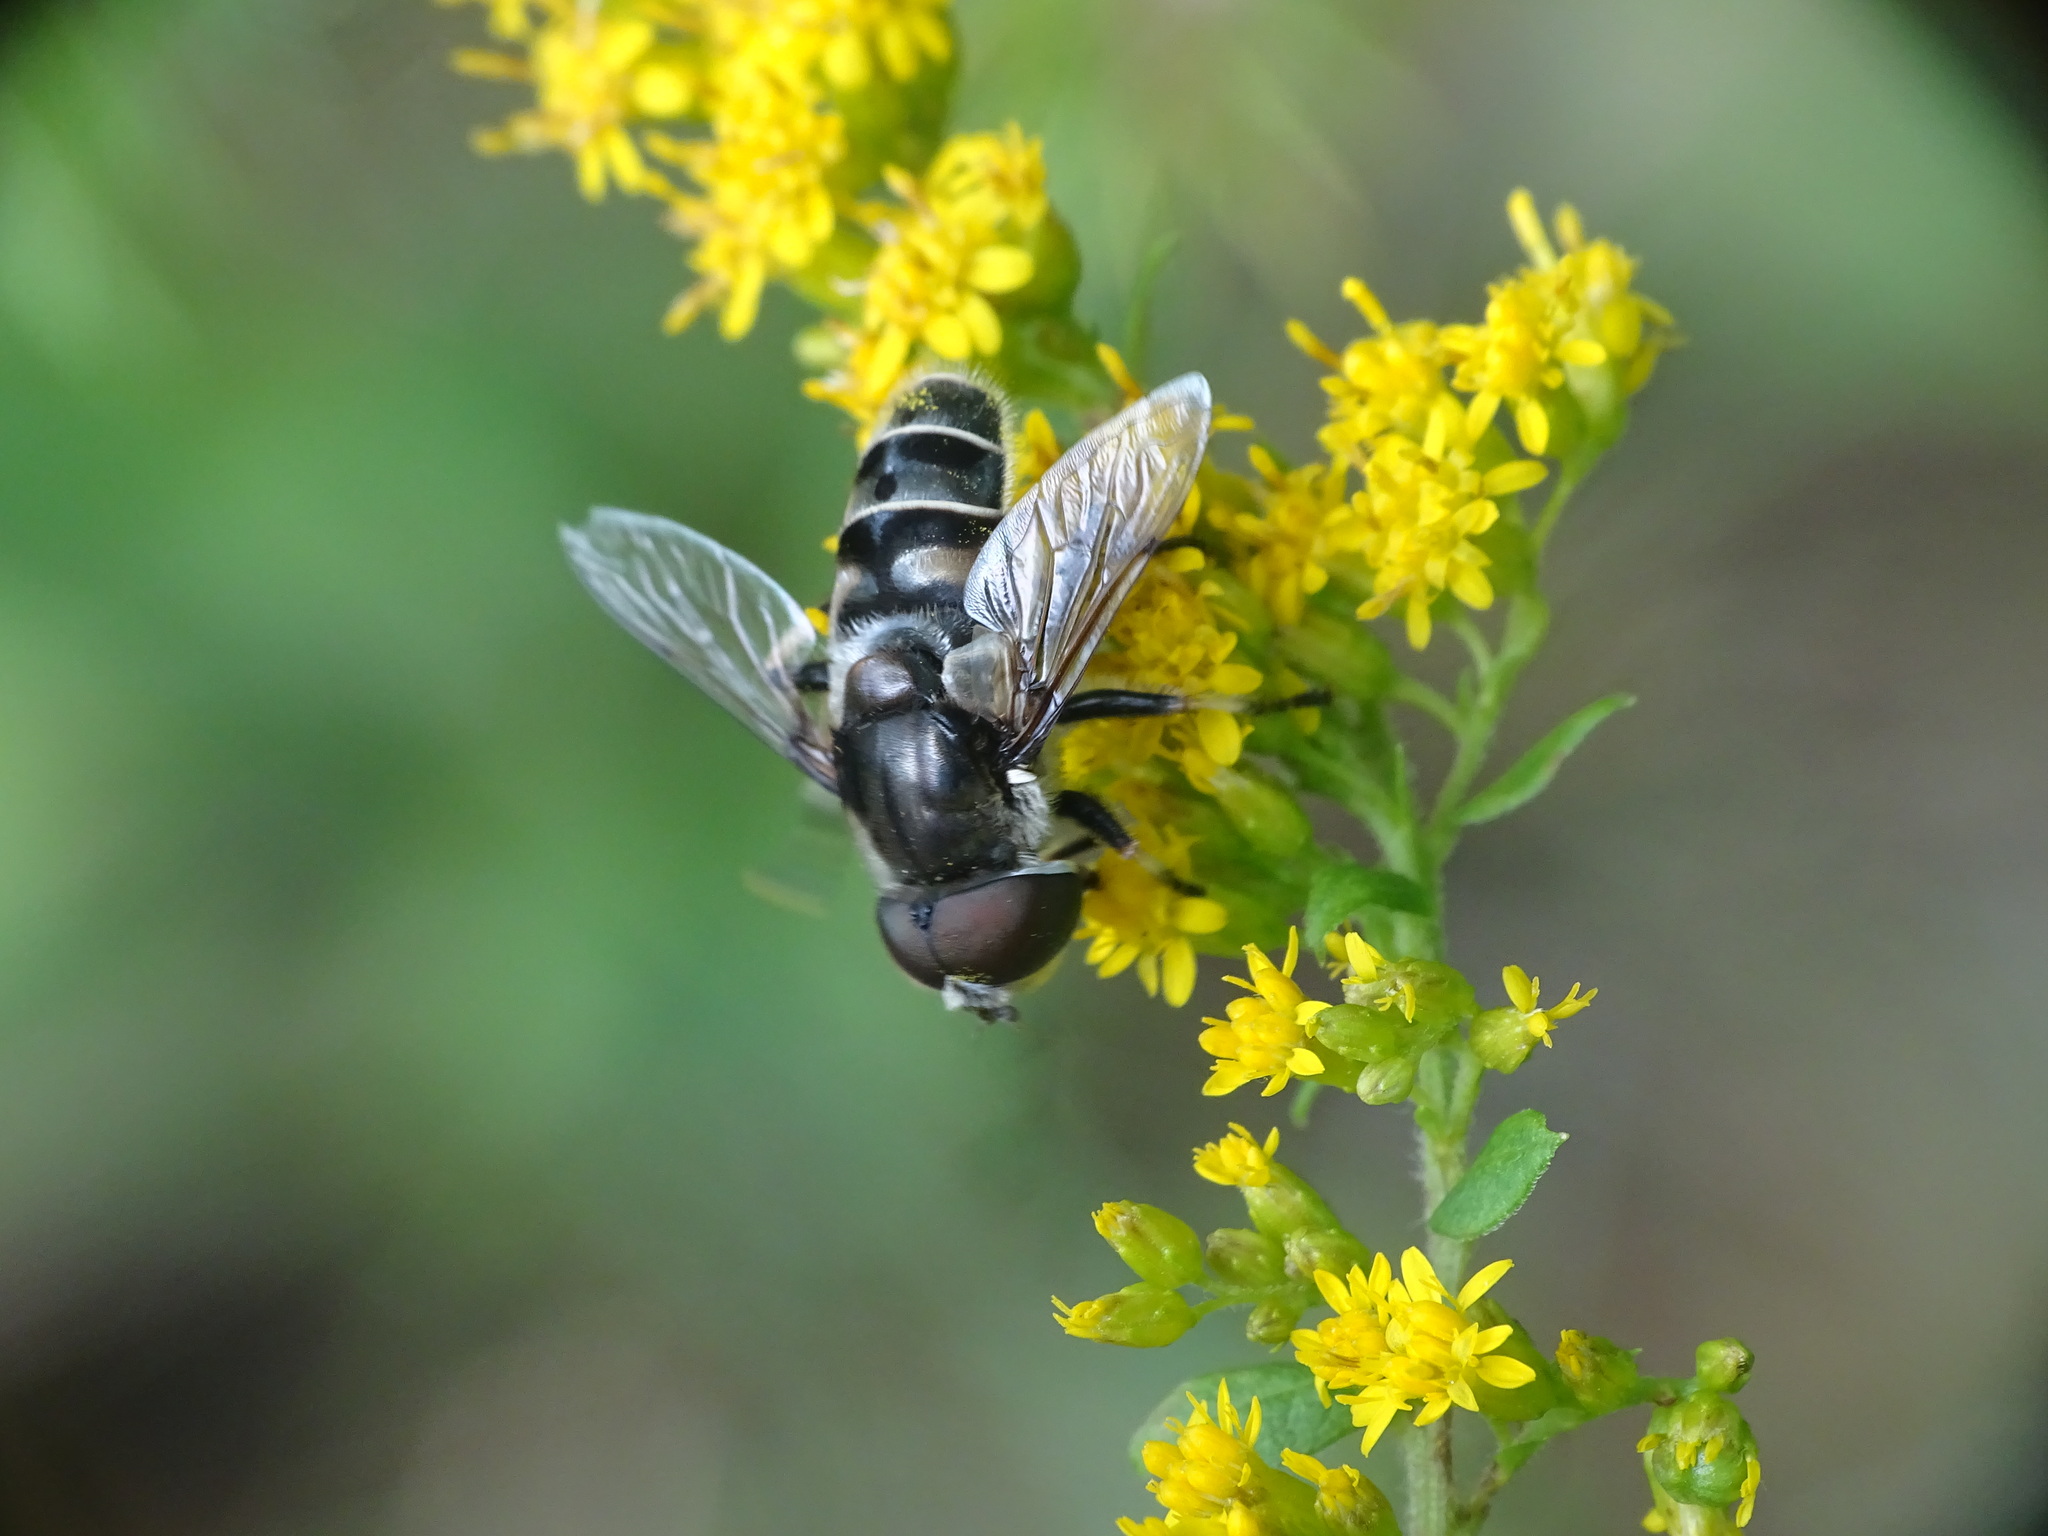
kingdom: Animalia
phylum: Arthropoda
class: Insecta
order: Diptera
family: Syrphidae
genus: Eristalis
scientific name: Eristalis dimidiata
